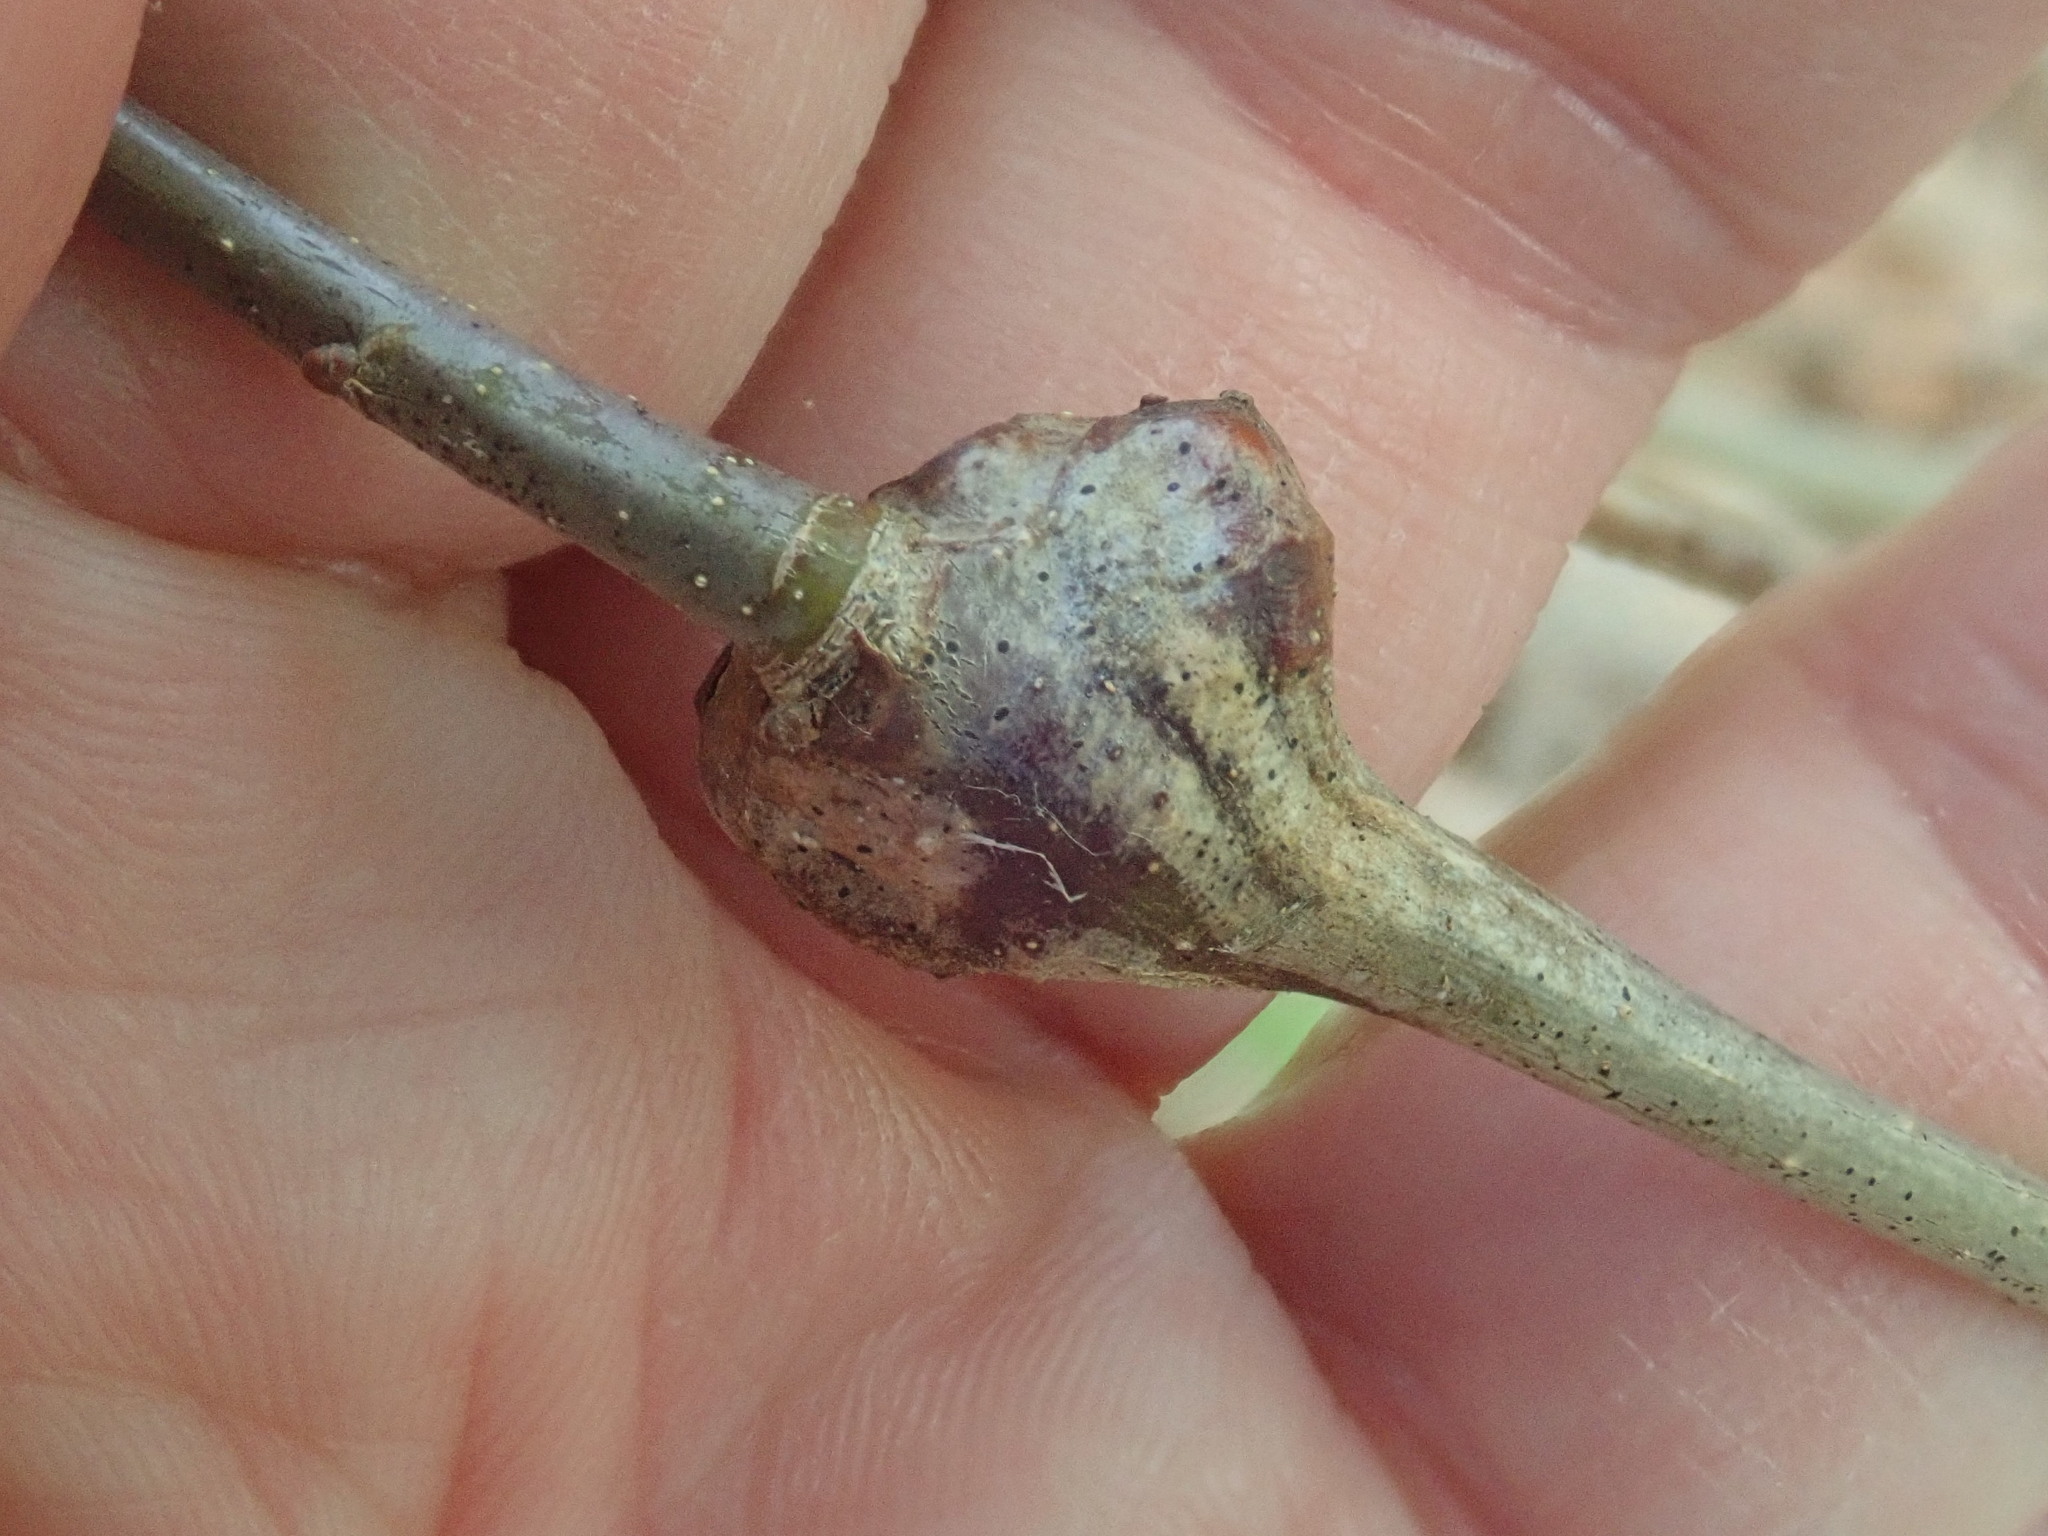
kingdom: Animalia
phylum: Arthropoda
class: Insecta
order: Hymenoptera
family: Cynipidae
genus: Callirhytis
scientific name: Callirhytis clavula
